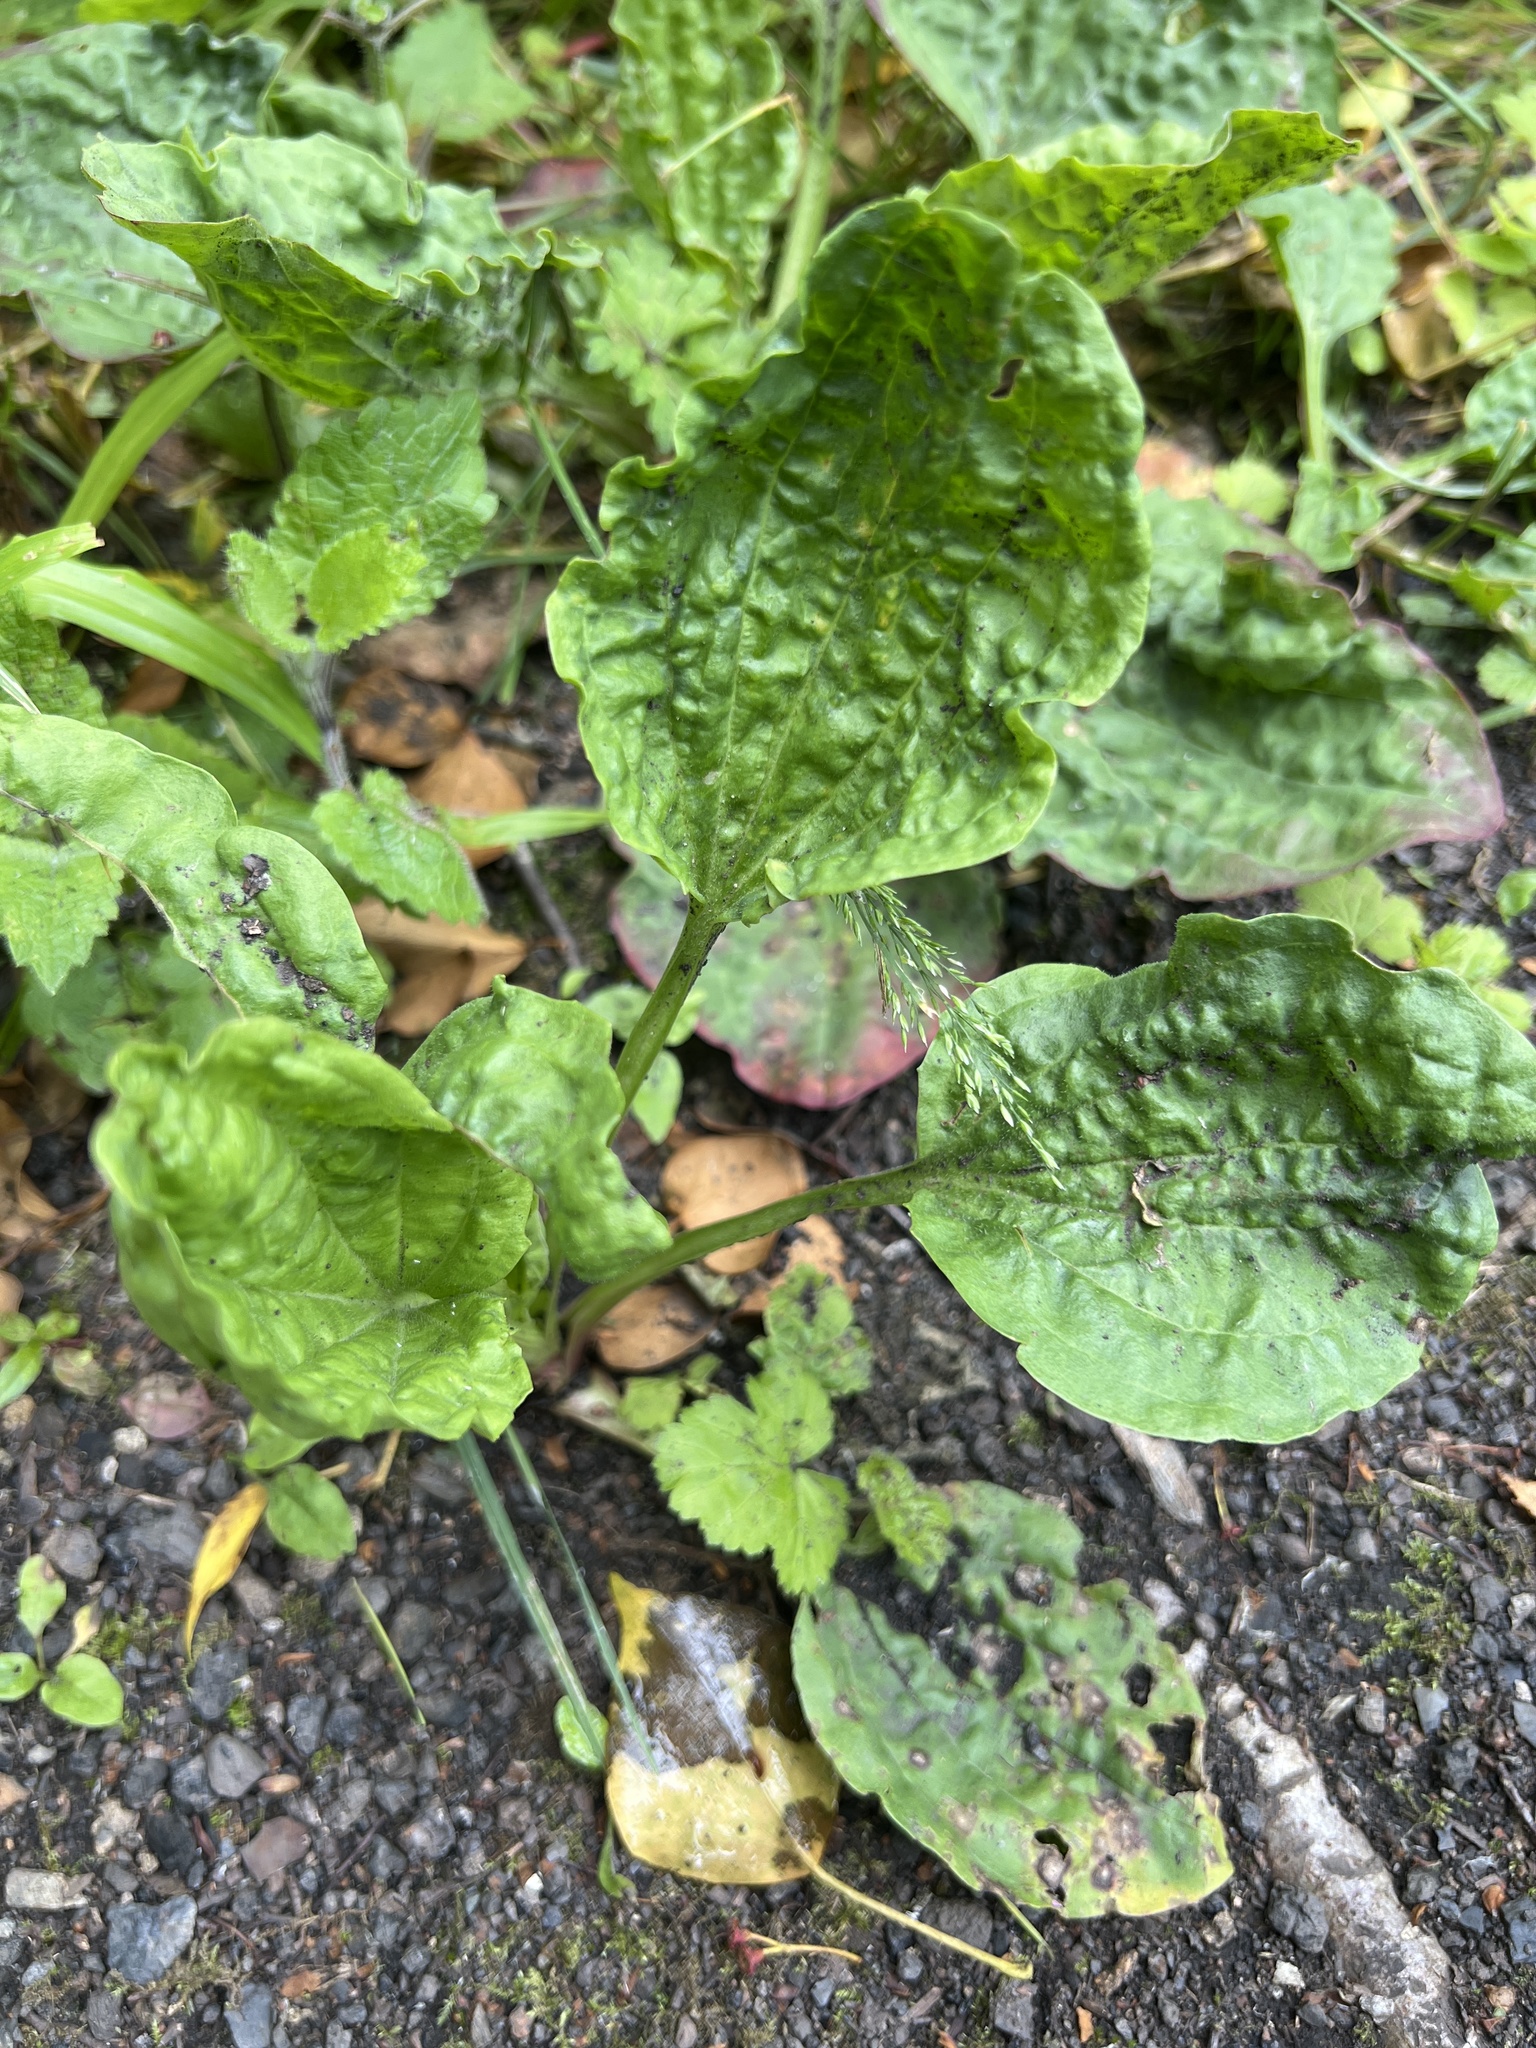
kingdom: Plantae
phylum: Tracheophyta
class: Magnoliopsida
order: Lamiales
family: Plantaginaceae
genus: Plantago
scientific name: Plantago major
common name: Common plantain
